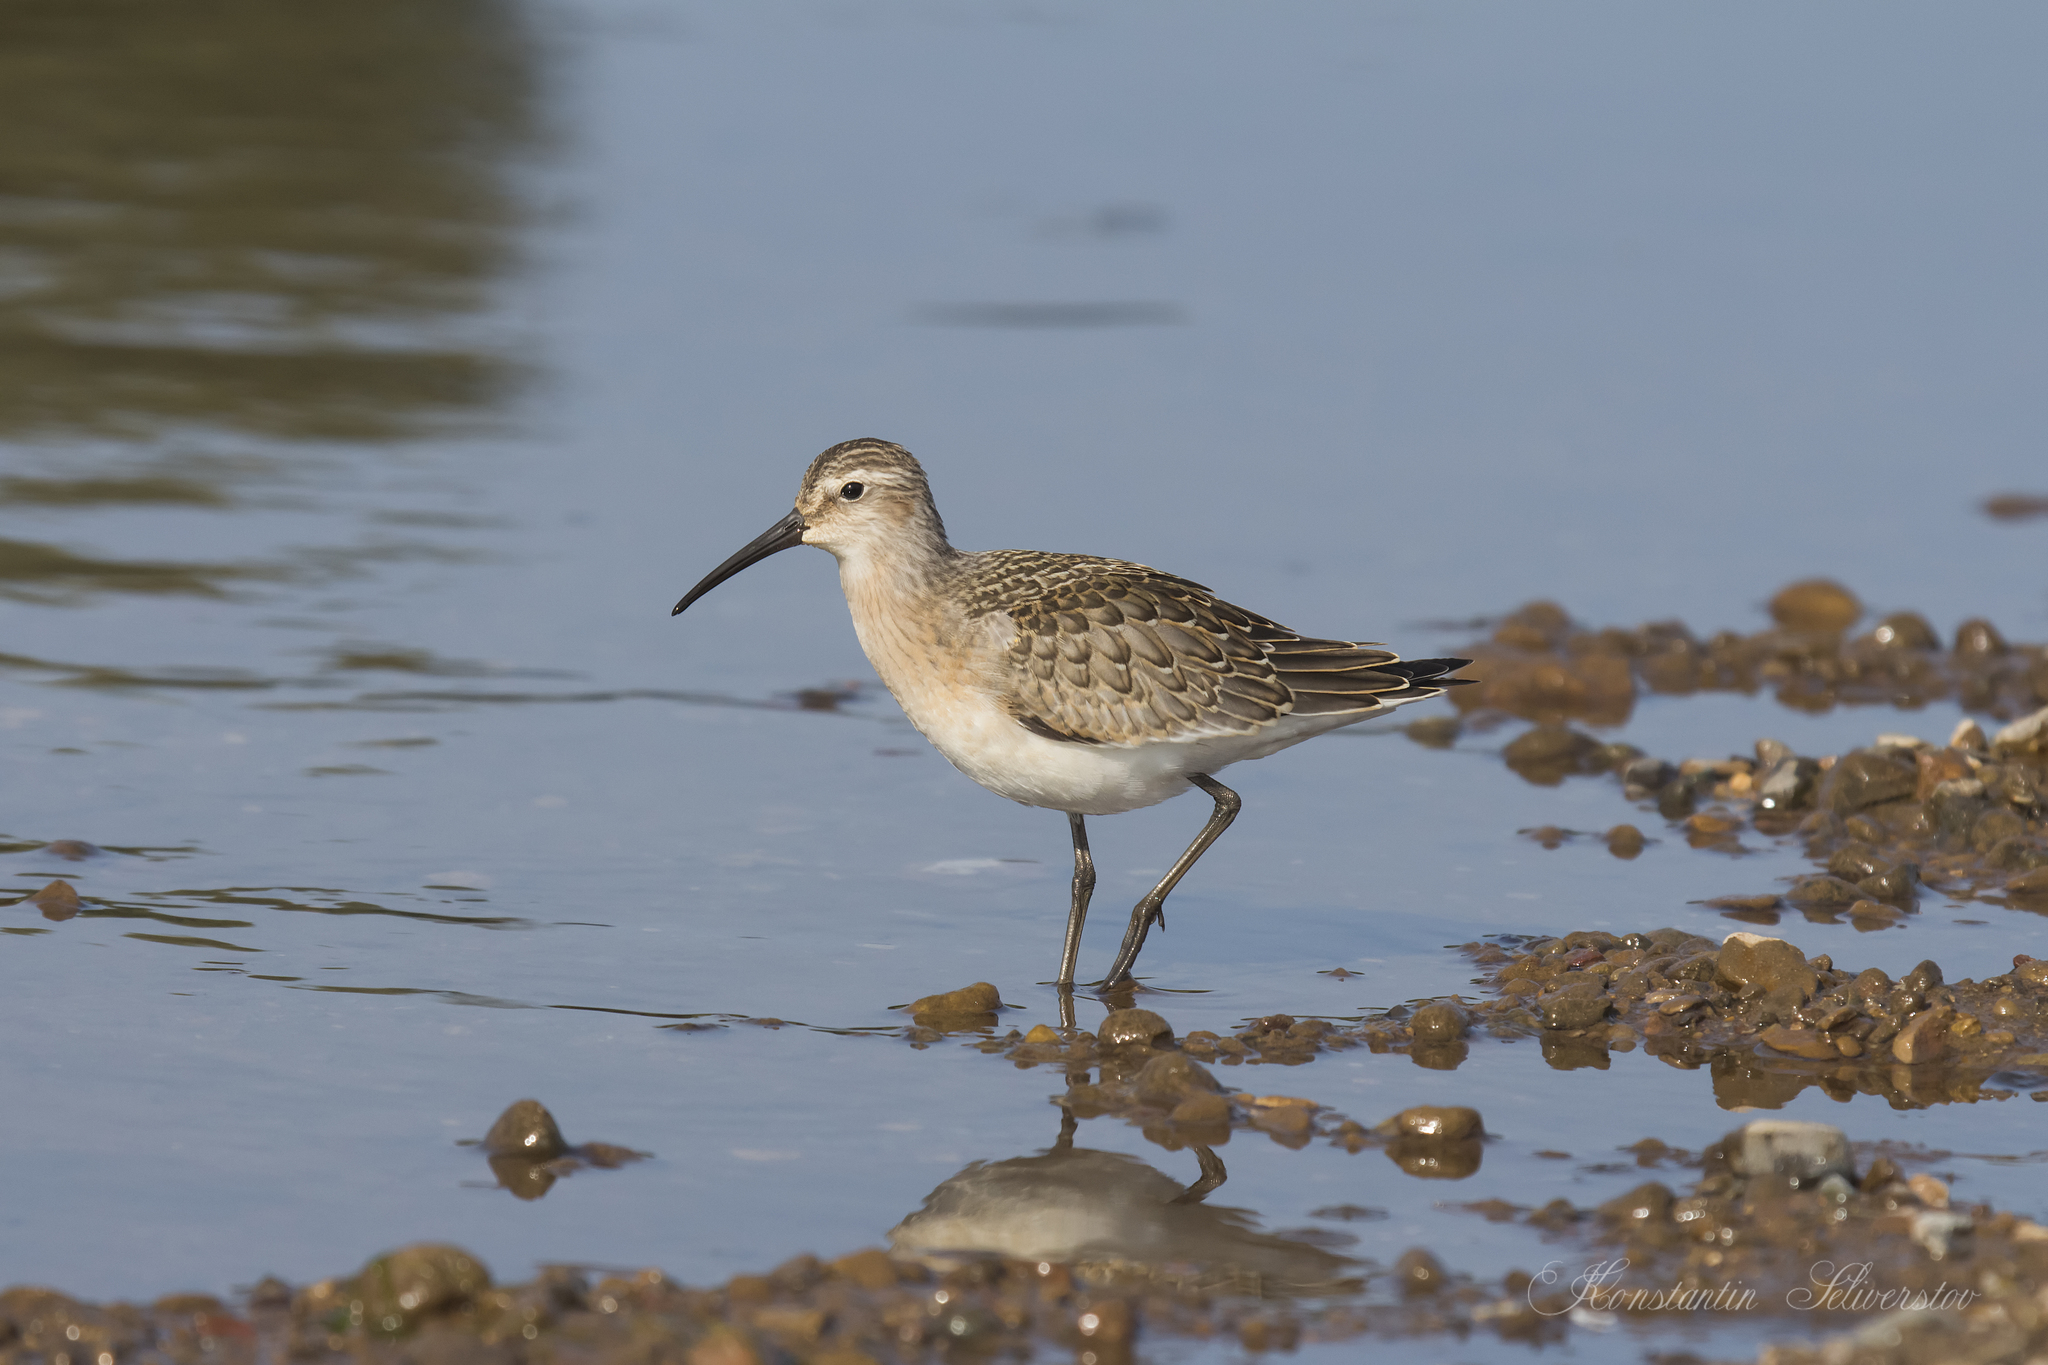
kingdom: Animalia
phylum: Chordata
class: Aves
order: Charadriiformes
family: Scolopacidae
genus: Calidris
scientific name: Calidris ferruginea
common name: Curlew sandpiper
